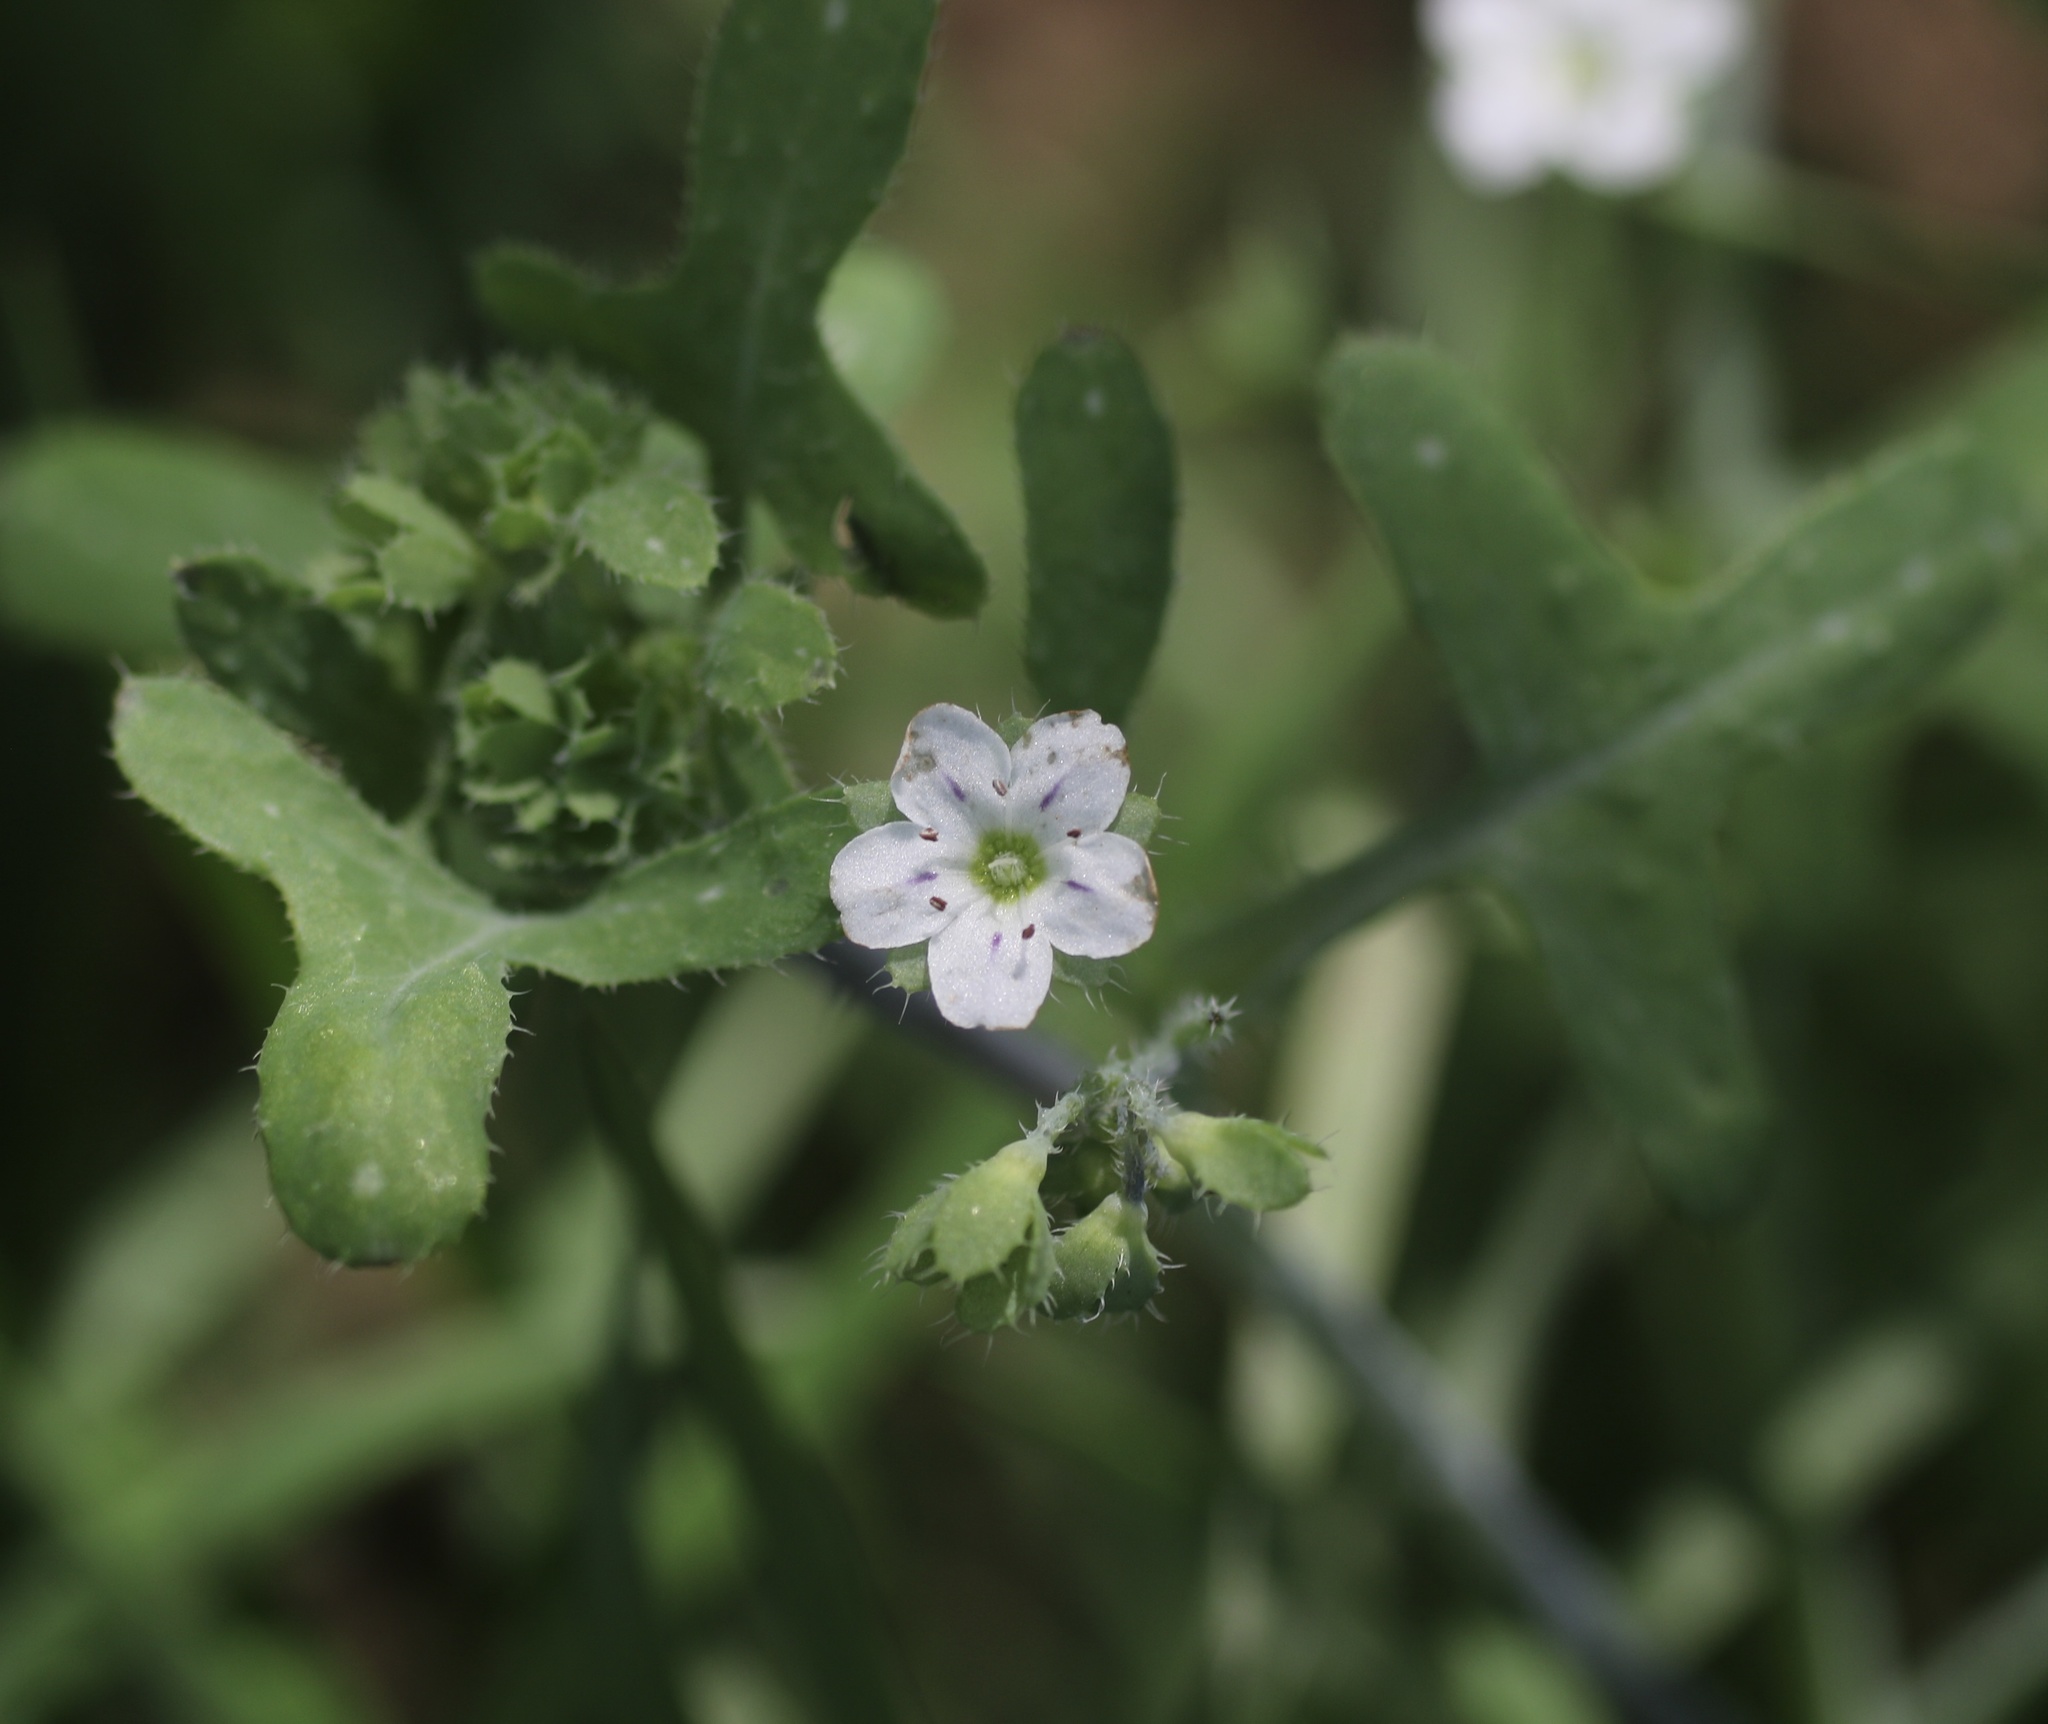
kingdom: Plantae
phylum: Tracheophyta
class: Magnoliopsida
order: Boraginales
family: Hydrophyllaceae
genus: Pholistoma
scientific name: Pholistoma membranaceum
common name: White fiesta-flower
